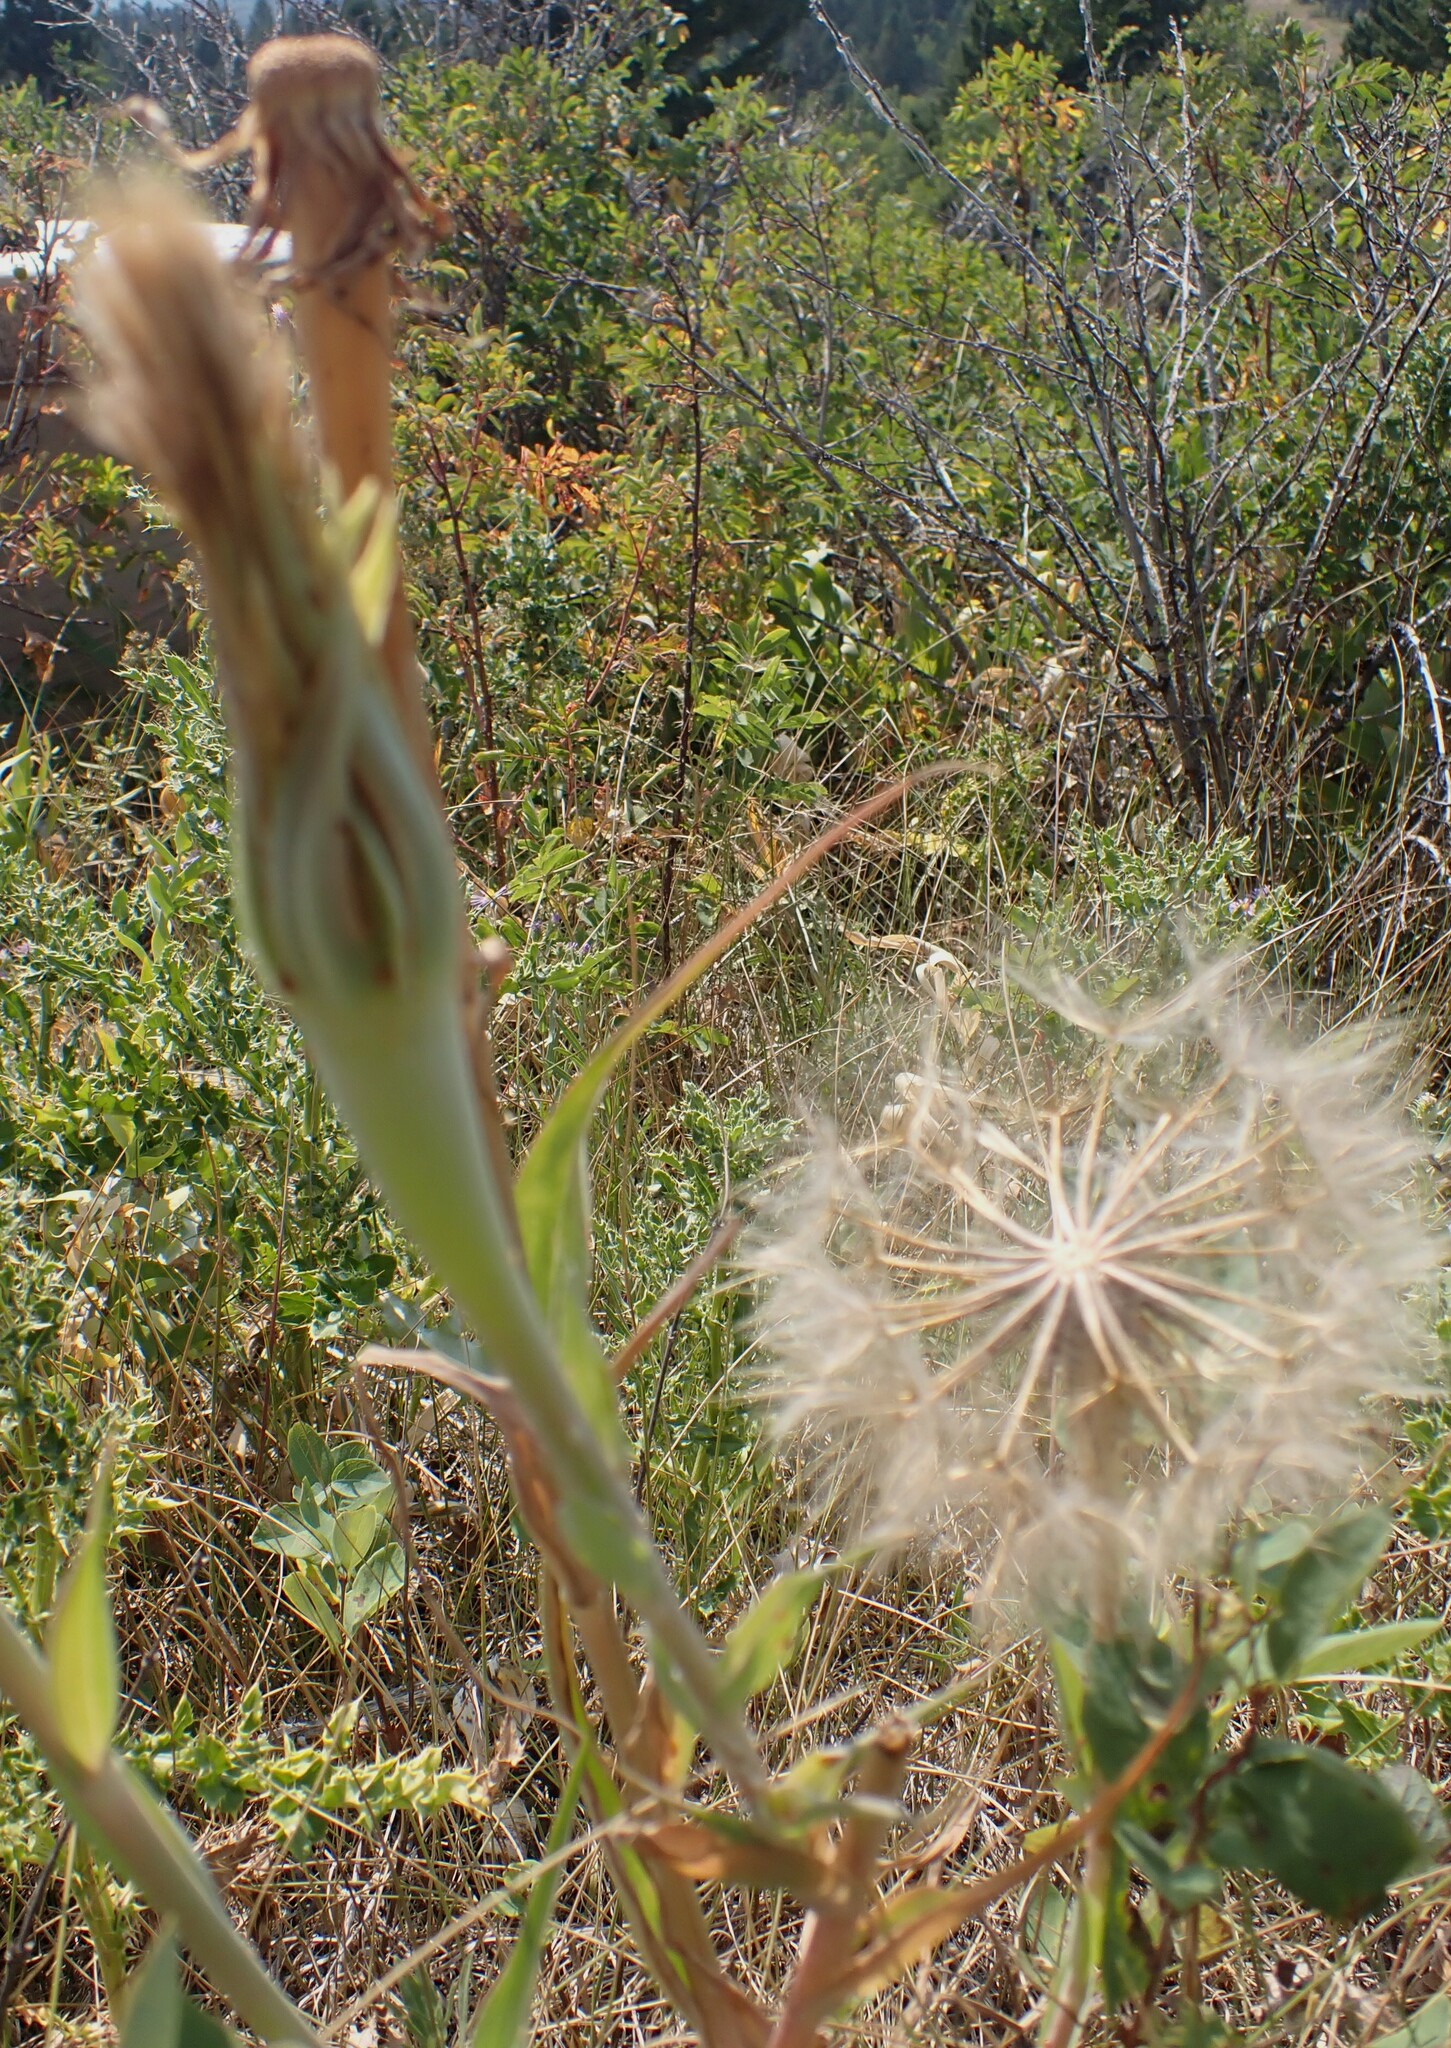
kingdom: Plantae
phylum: Tracheophyta
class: Magnoliopsida
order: Asterales
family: Asteraceae
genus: Tragopogon
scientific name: Tragopogon dubius
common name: Yellow salsify
